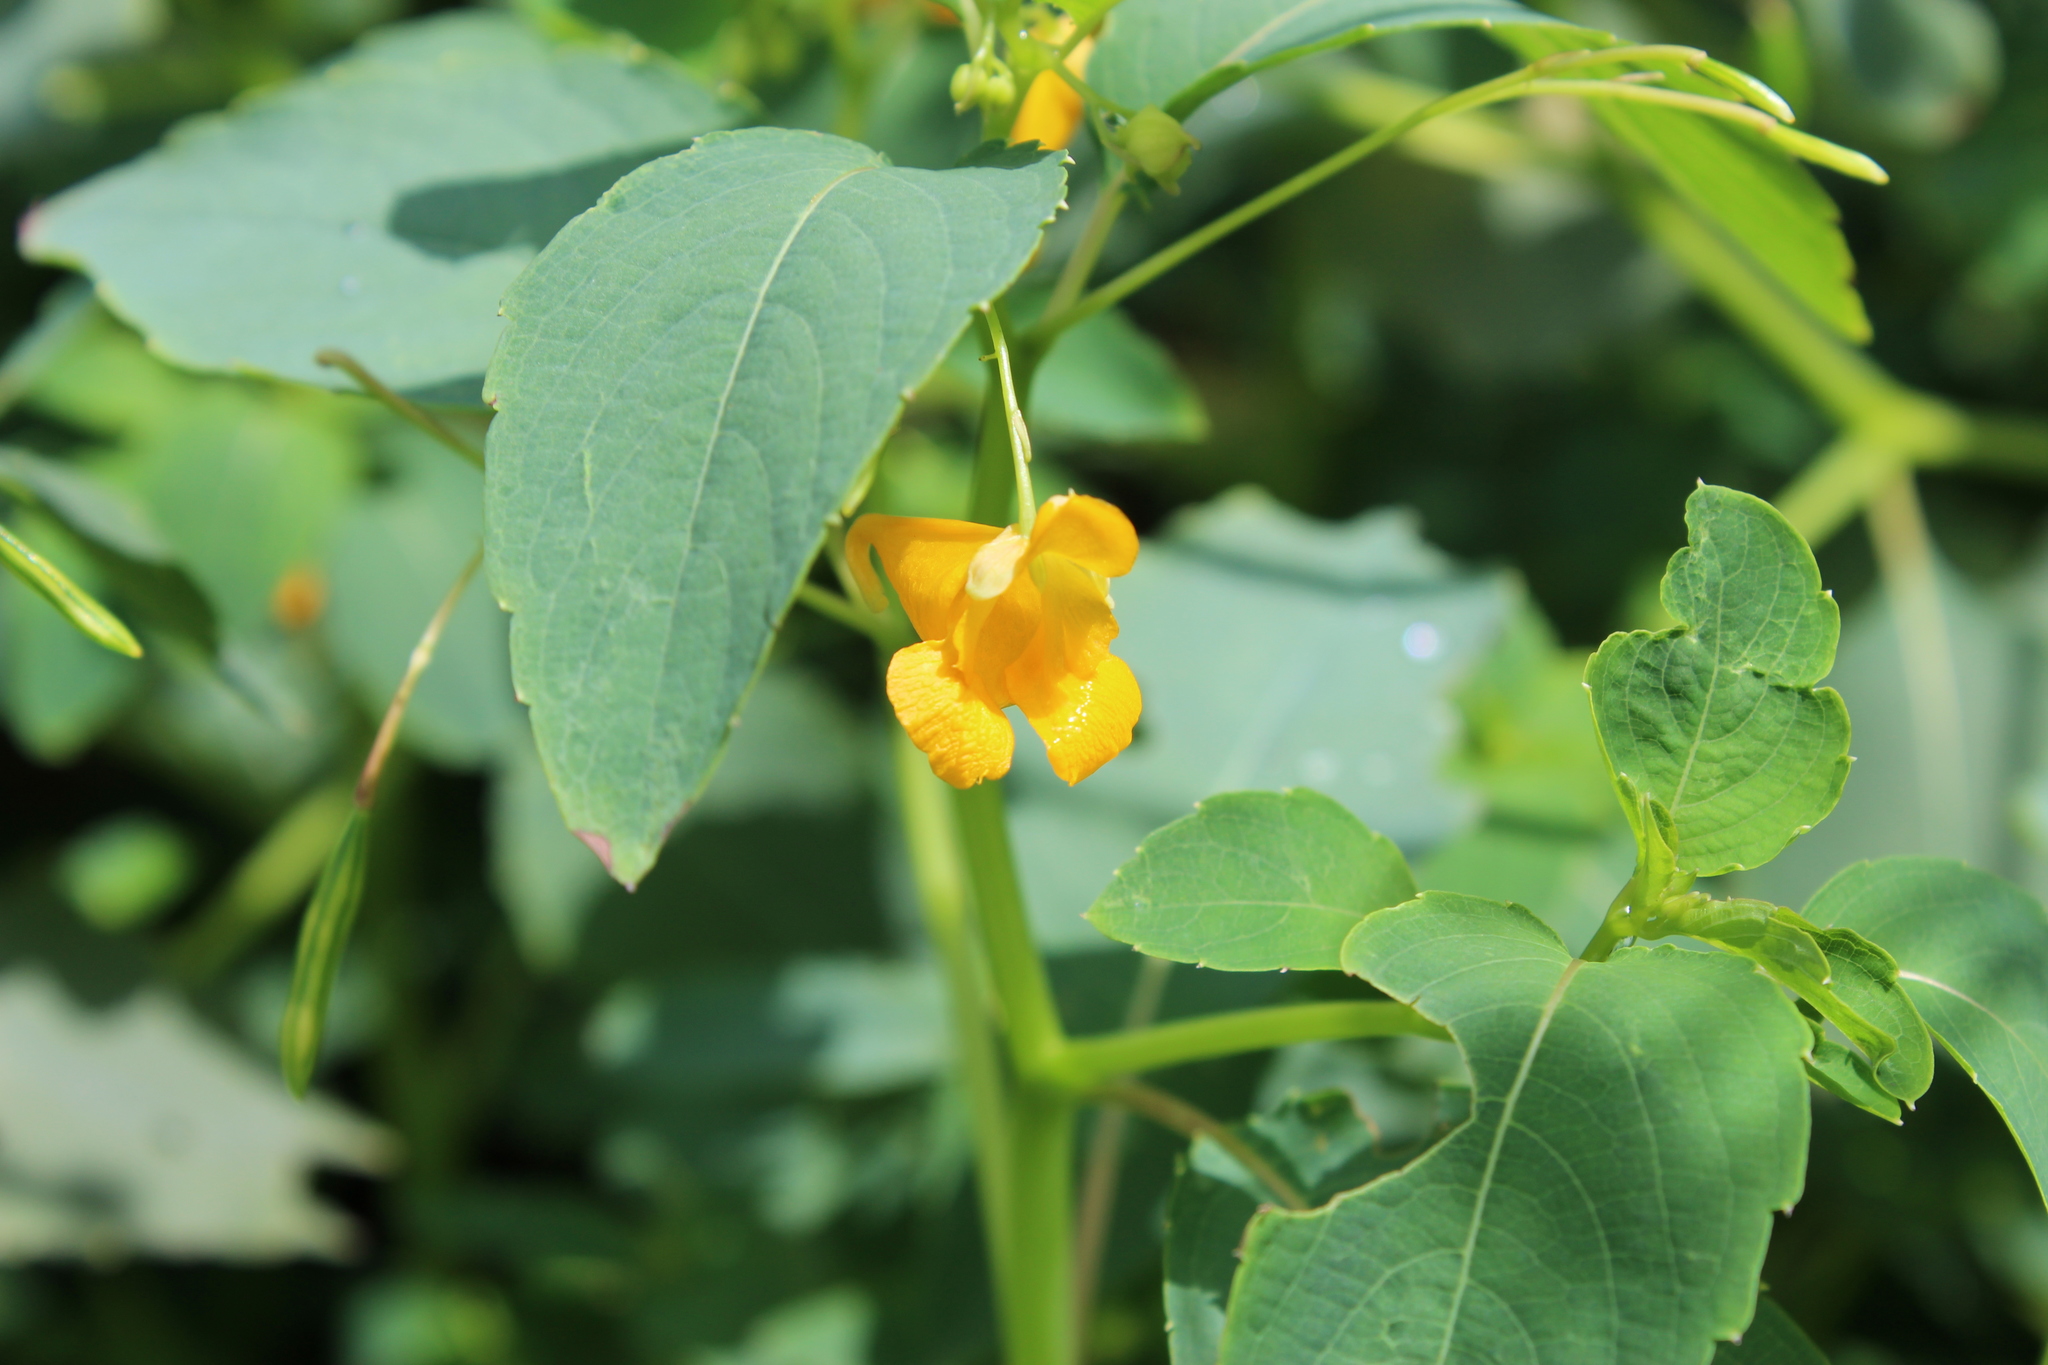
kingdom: Plantae
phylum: Tracheophyta
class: Magnoliopsida
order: Ericales
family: Balsaminaceae
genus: Impatiens
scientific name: Impatiens capensis
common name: Orange balsam
